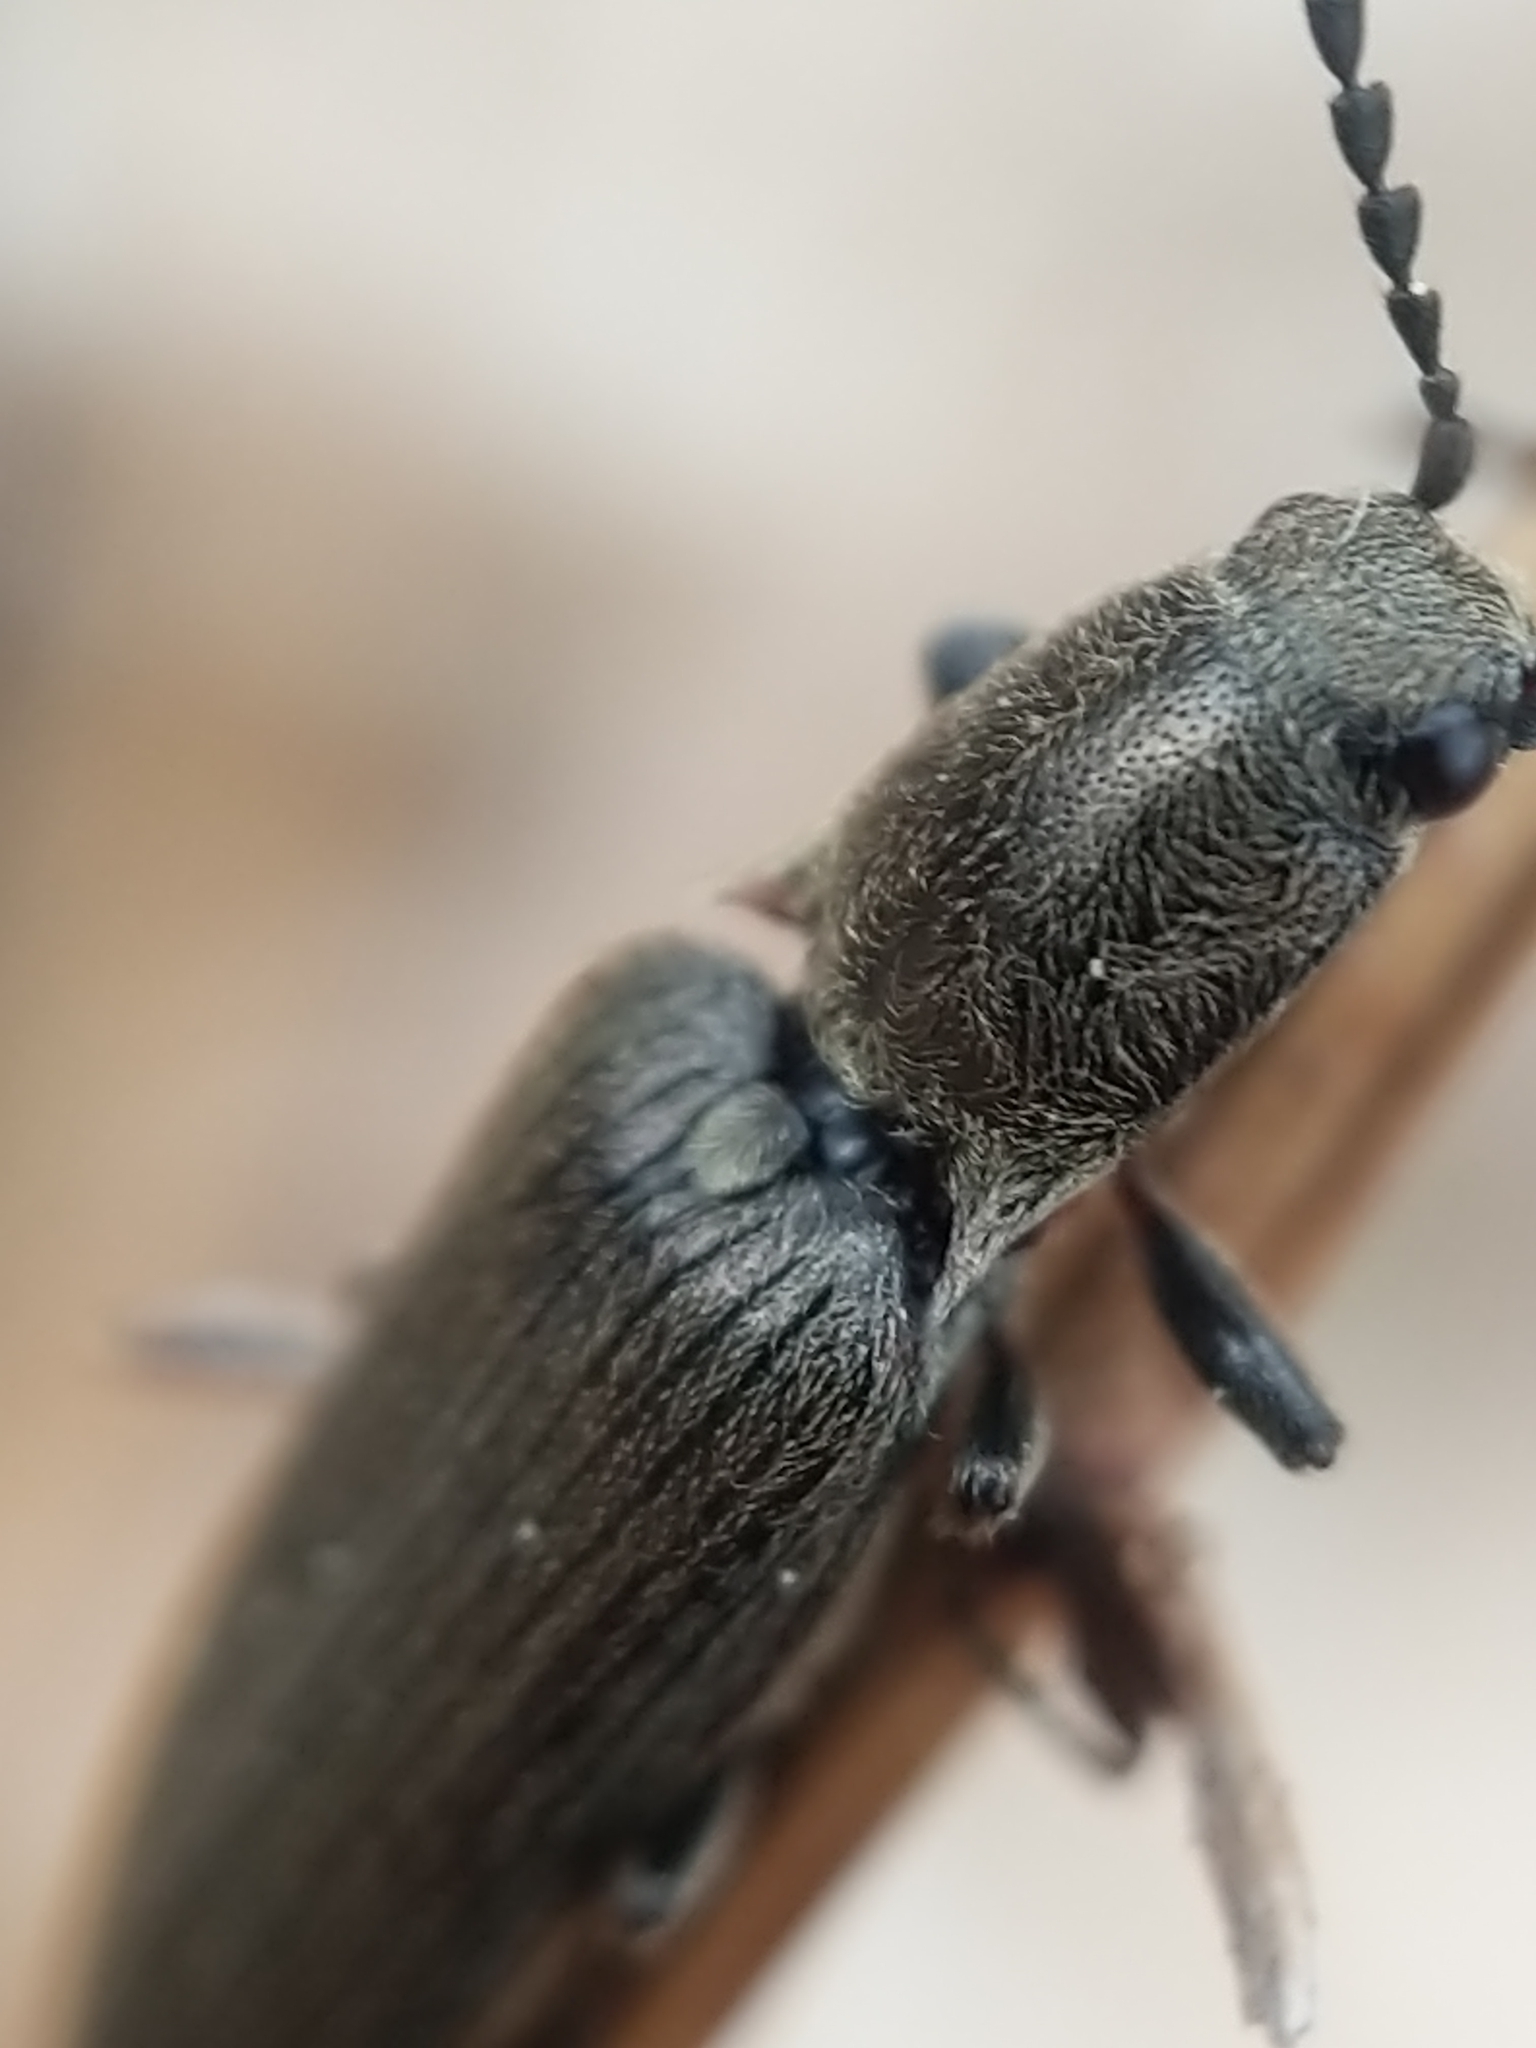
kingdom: Animalia
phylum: Arthropoda
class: Insecta
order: Coleoptera
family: Elateridae
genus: Sylvanelater
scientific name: Sylvanelater cylindriformis
